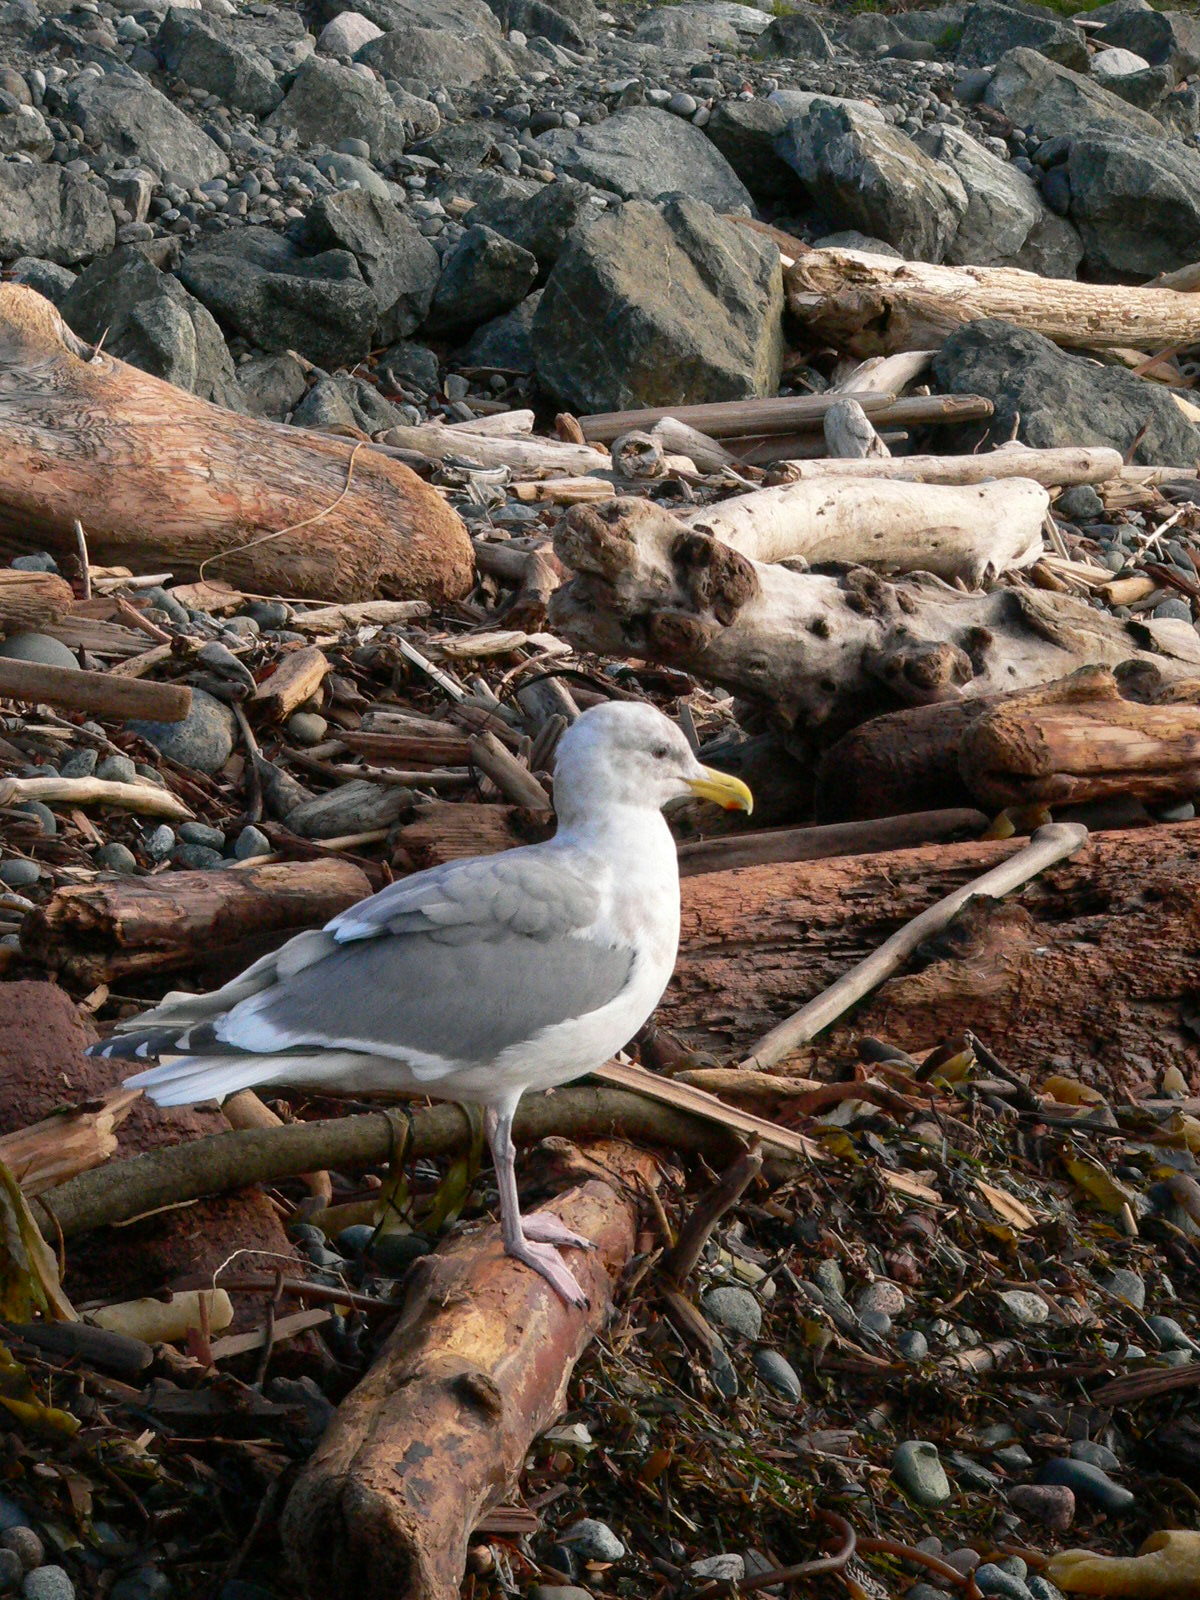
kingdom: Animalia
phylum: Chordata
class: Aves
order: Charadriiformes
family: Laridae
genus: Larus
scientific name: Larus
